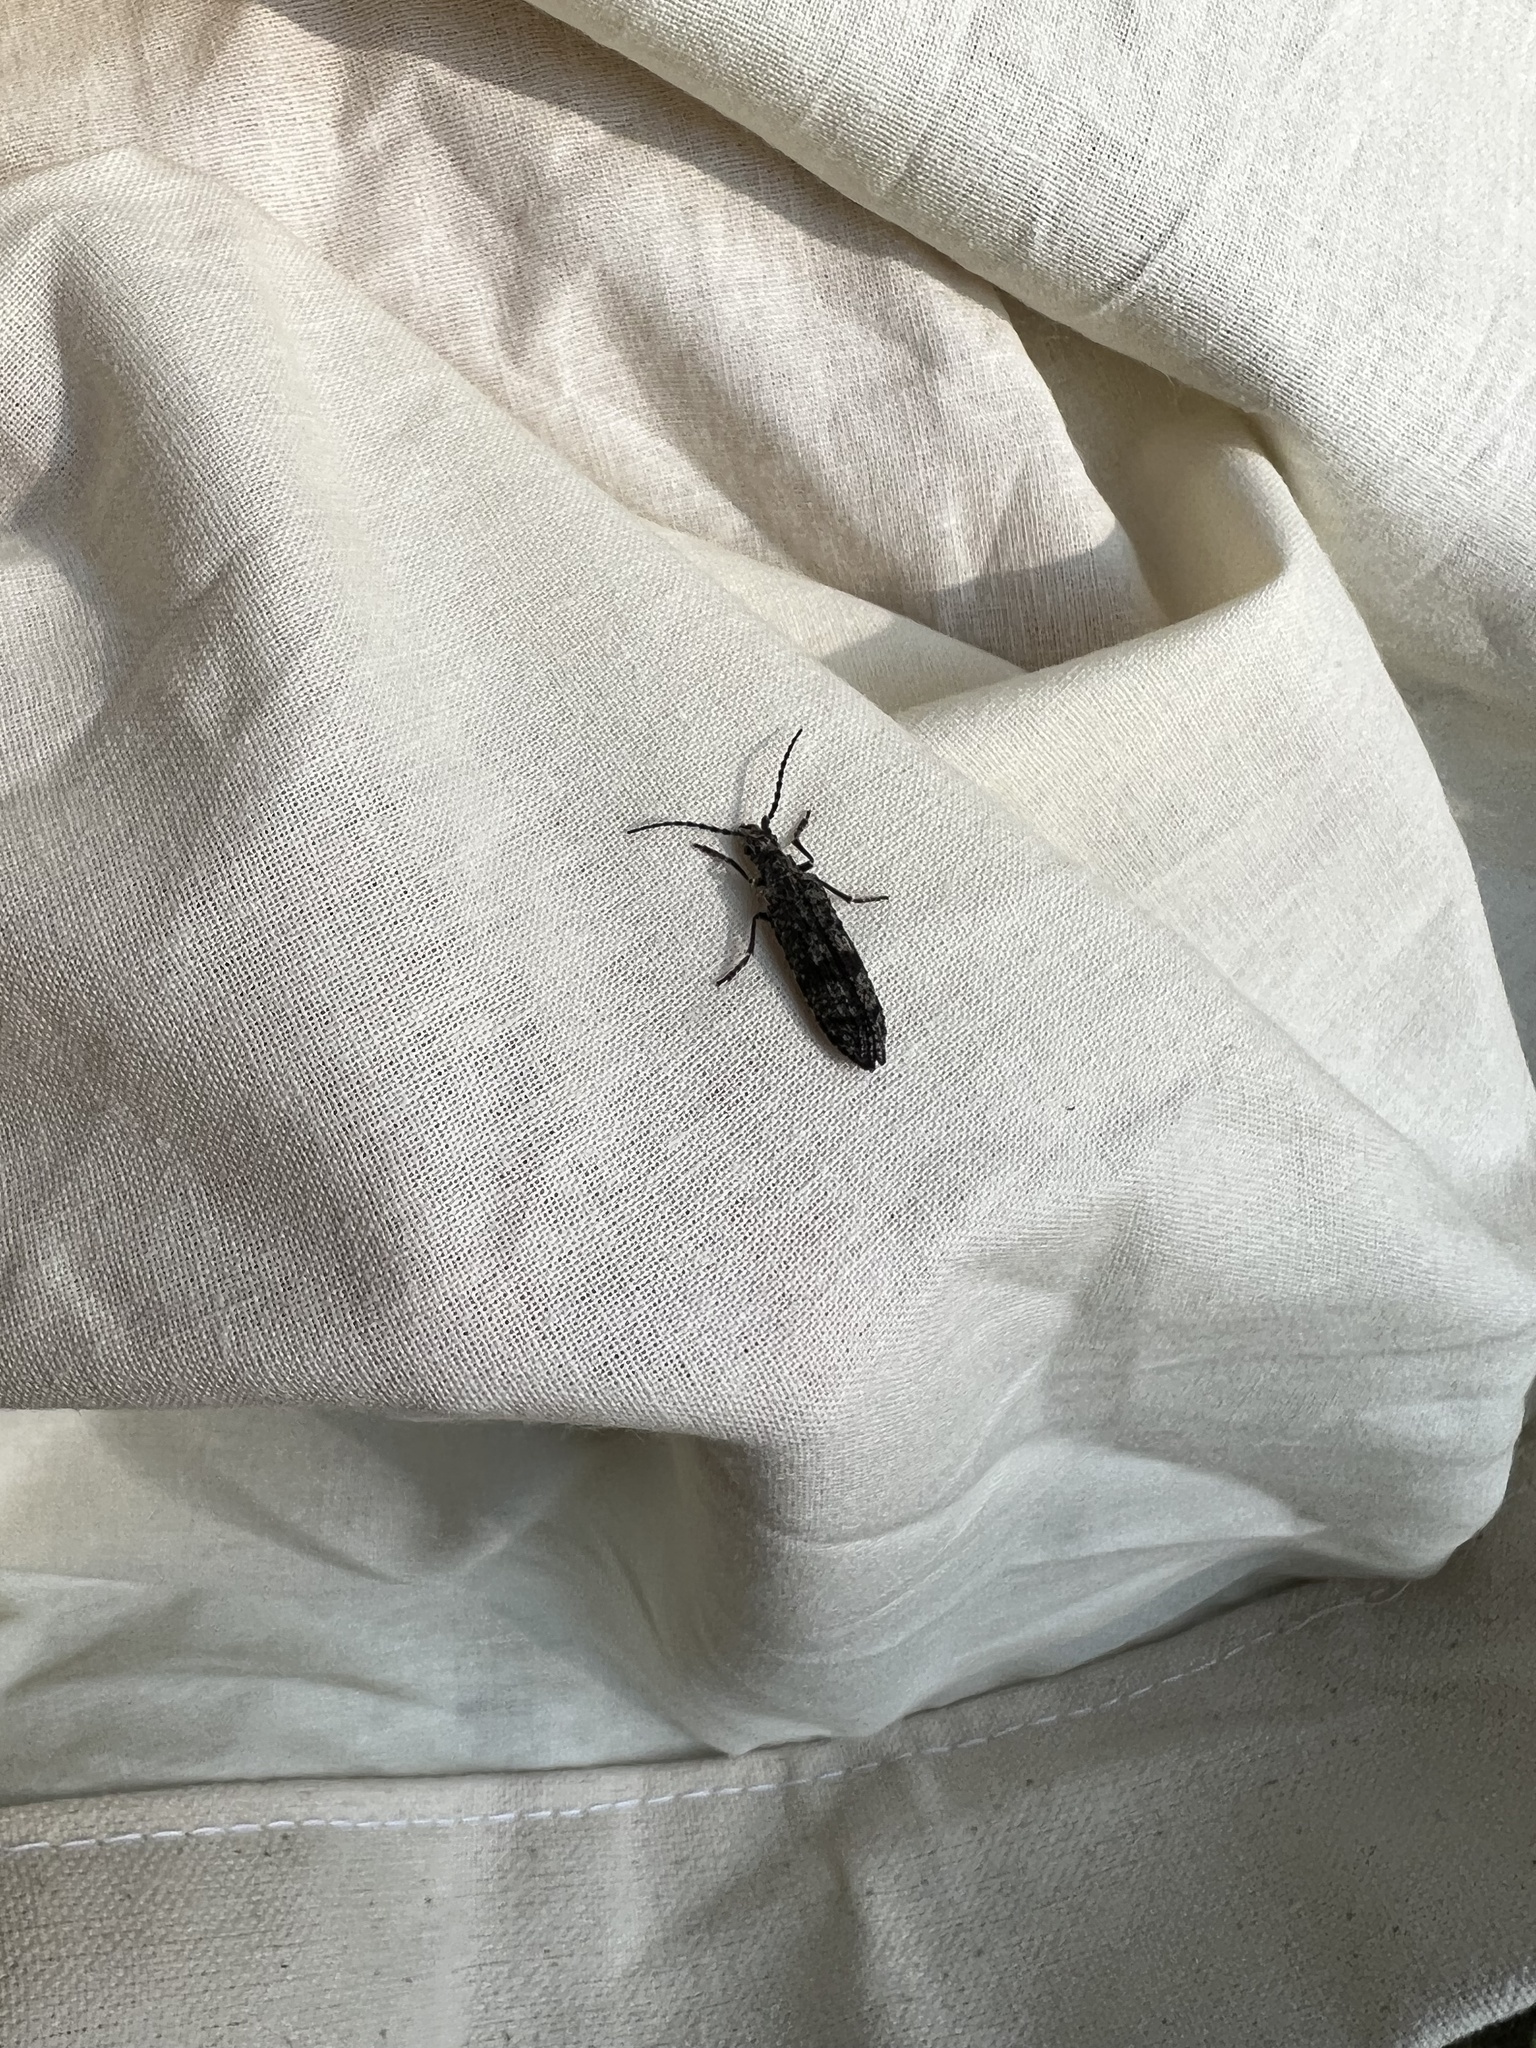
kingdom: Animalia
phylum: Arthropoda
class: Insecta
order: Coleoptera
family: Cupedidae
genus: Priacma
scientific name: Priacma serrata
